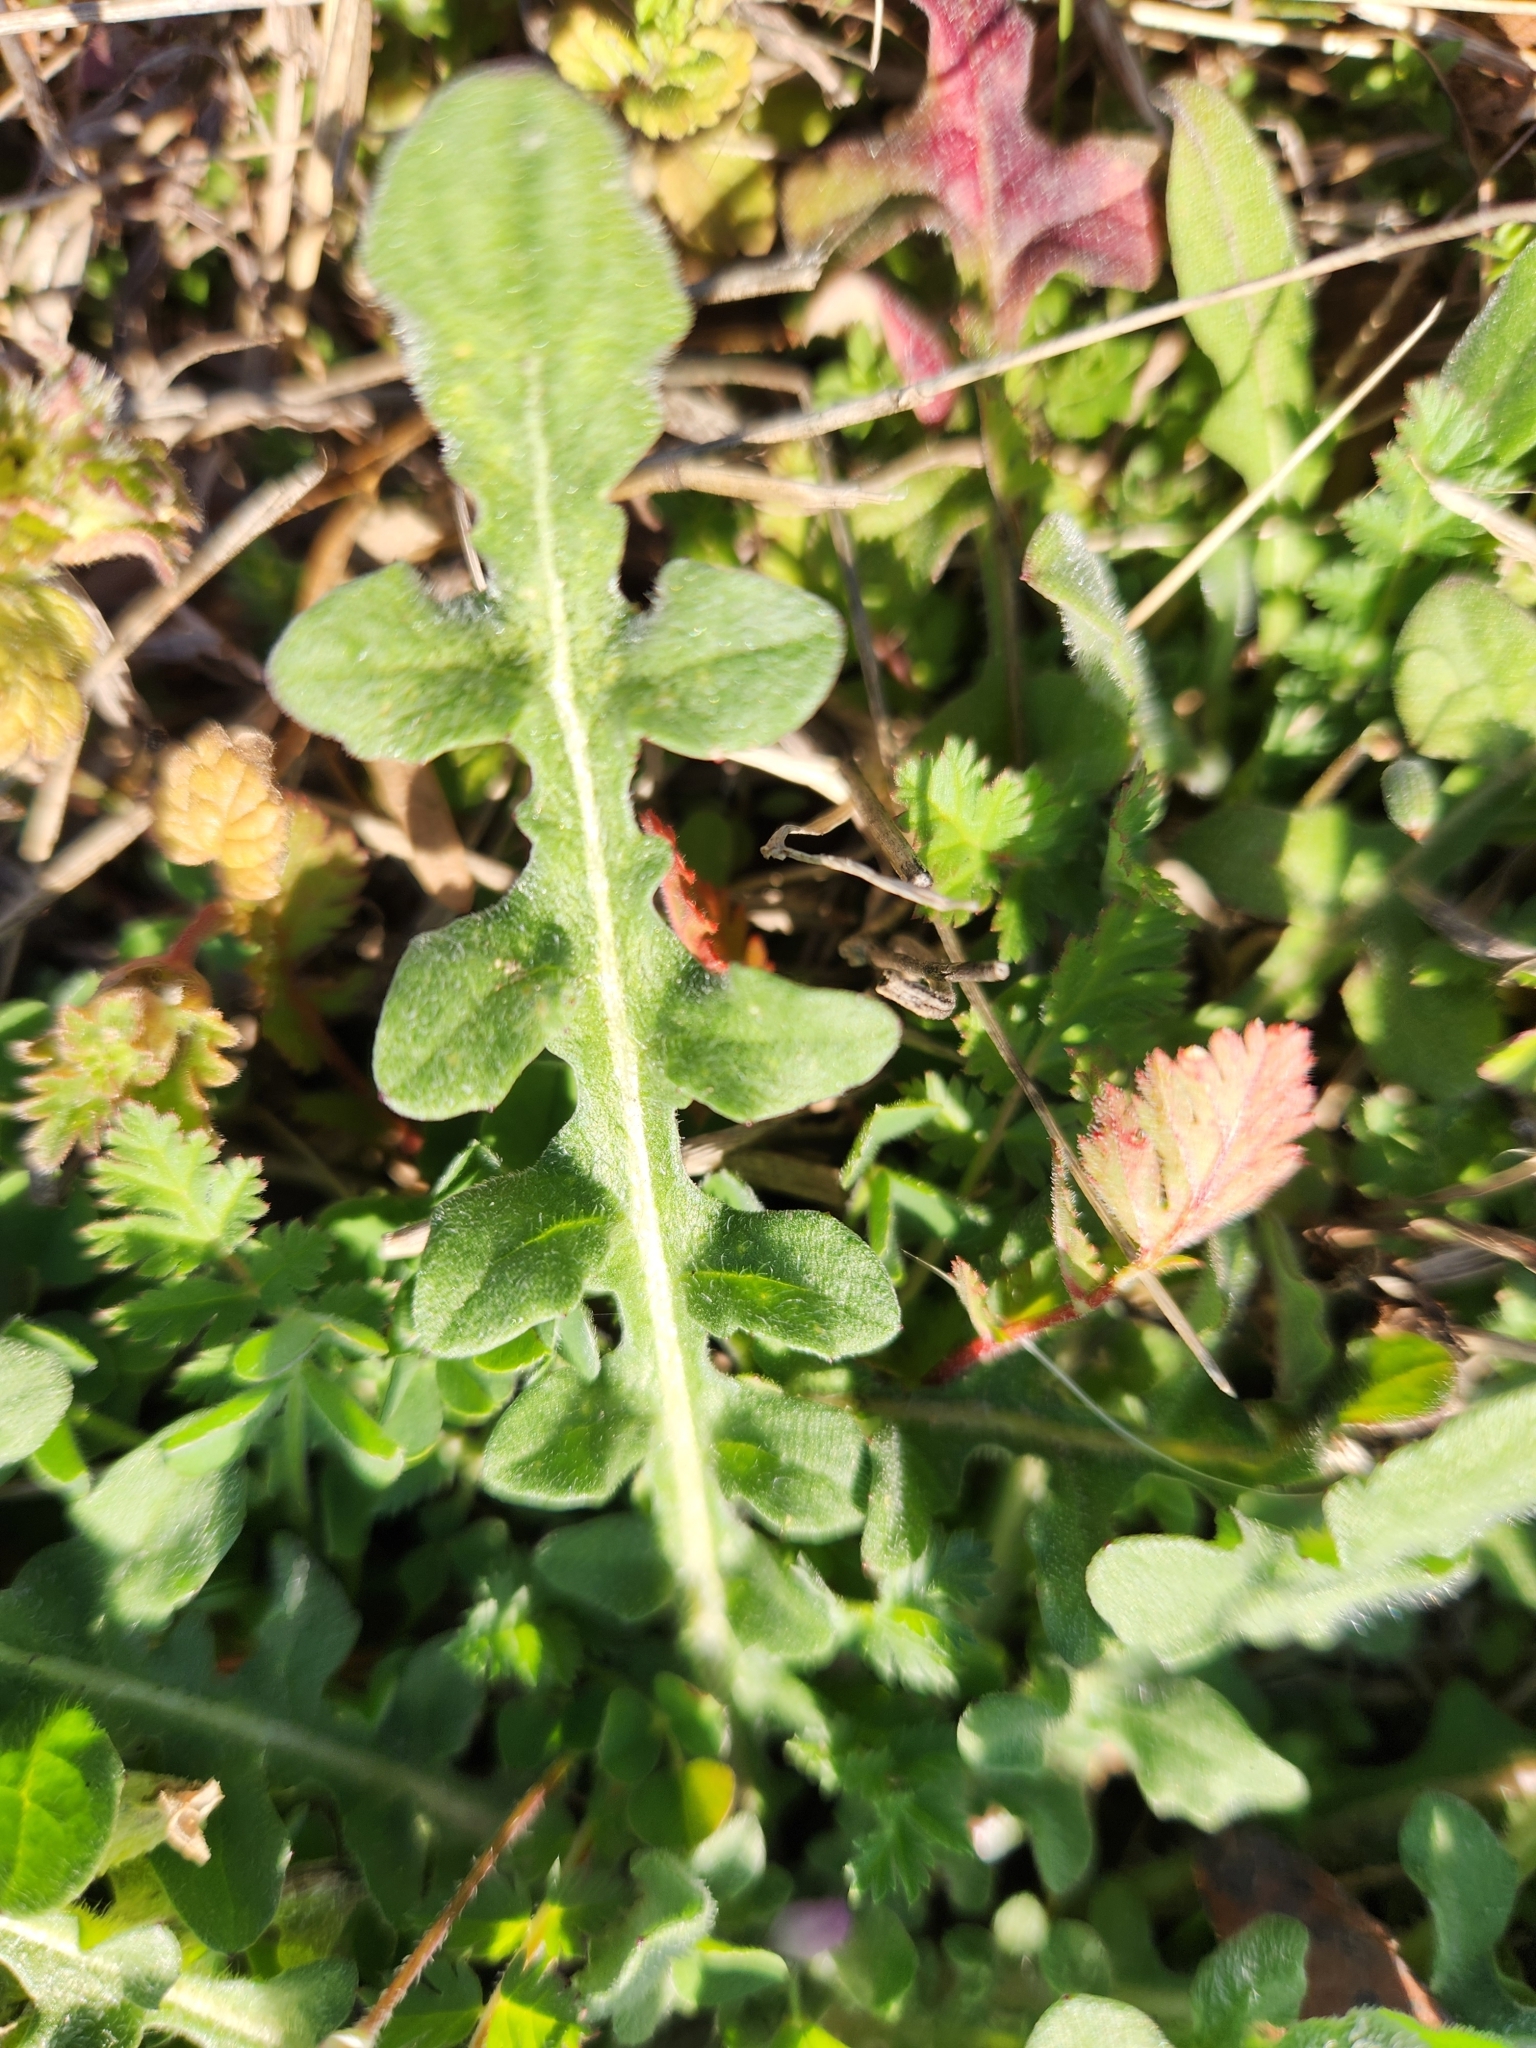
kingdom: Plantae
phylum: Tracheophyta
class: Magnoliopsida
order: Asterales
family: Asteraceae
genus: Centaurea
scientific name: Centaurea melitensis
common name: Maltese star-thistle
